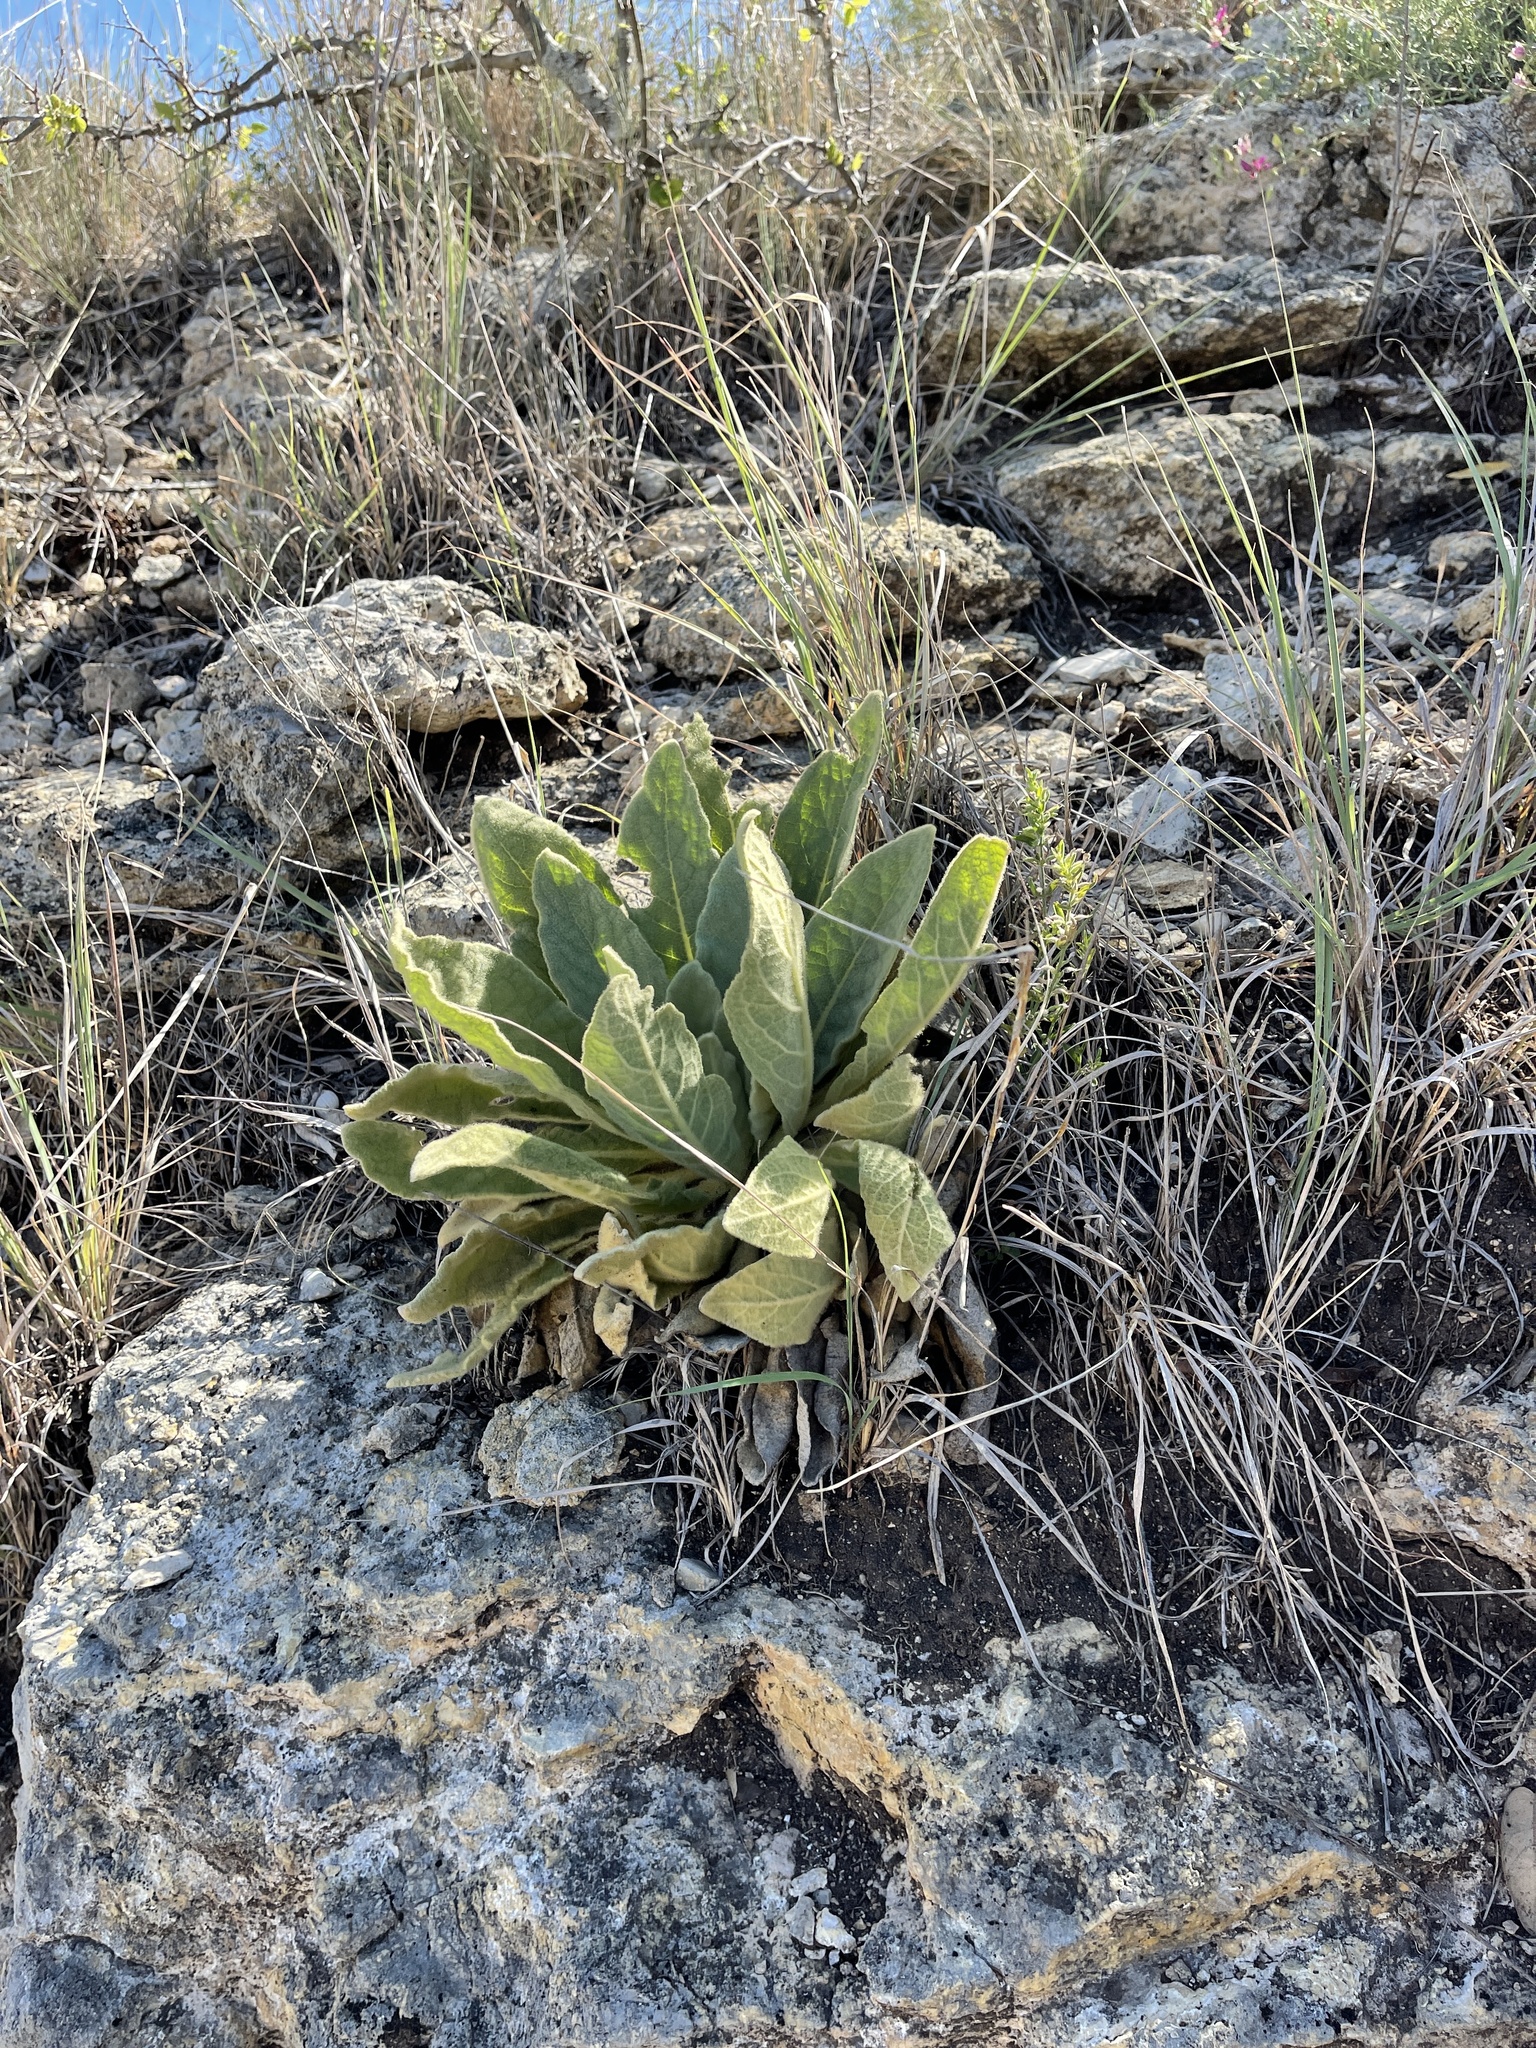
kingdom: Plantae
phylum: Tracheophyta
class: Magnoliopsida
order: Lamiales
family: Scrophulariaceae
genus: Verbascum
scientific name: Verbascum thapsus
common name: Common mullein
